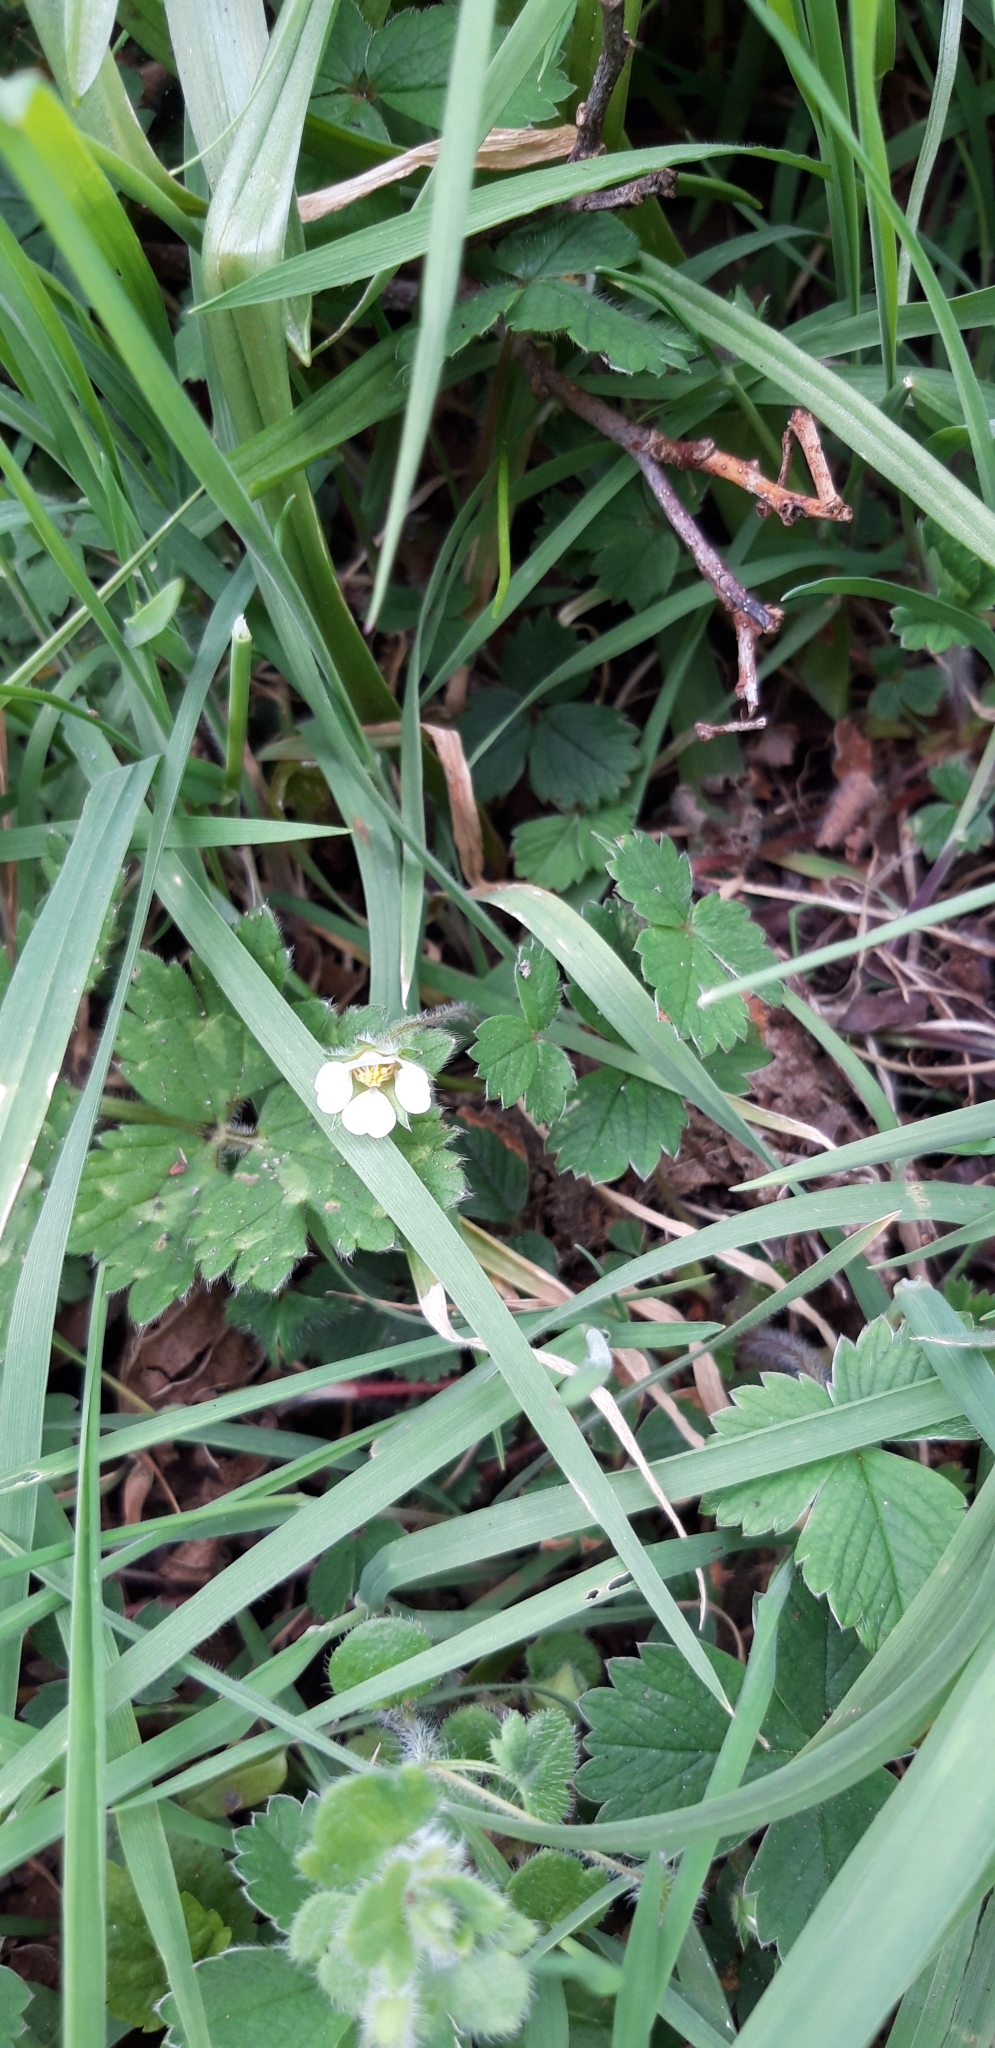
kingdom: Plantae
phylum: Tracheophyta
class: Magnoliopsida
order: Rosales
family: Rosaceae
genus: Potentilla
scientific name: Potentilla sterilis
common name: Barren strawberry
